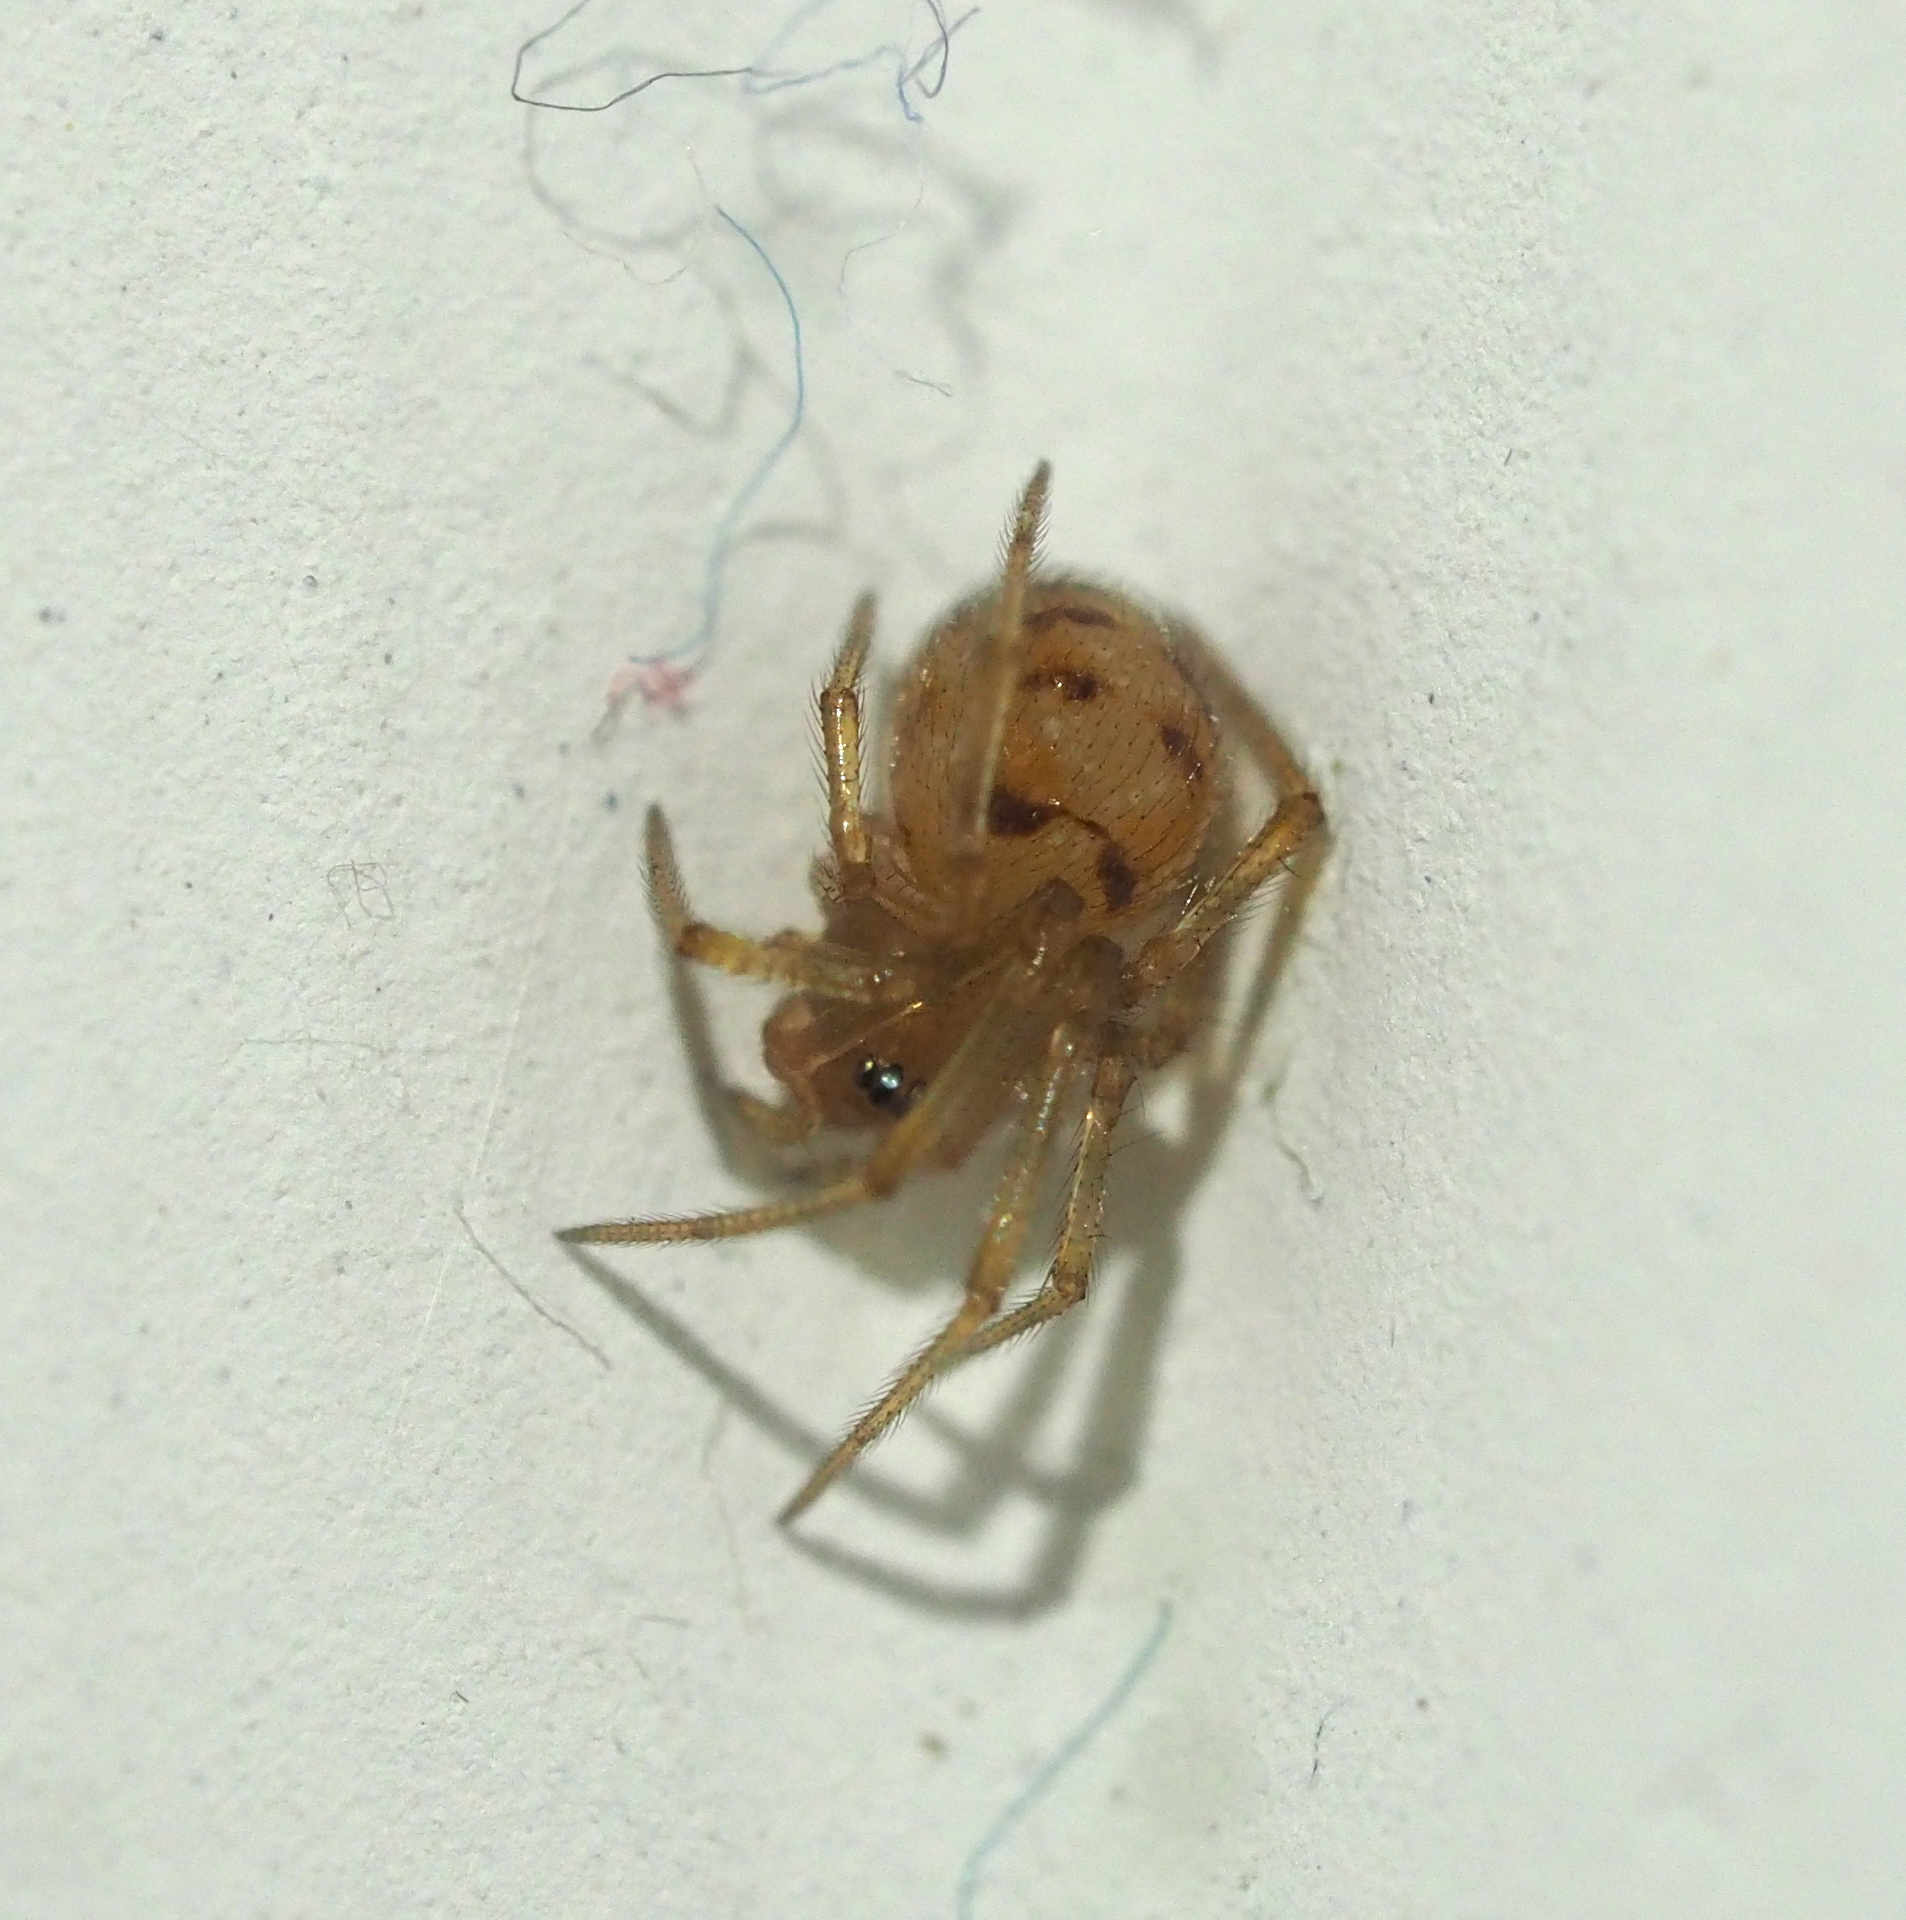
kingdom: Animalia
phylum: Arthropoda
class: Arachnida
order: Araneae
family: Theridiidae
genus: Steatoda
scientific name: Steatoda triangulosa
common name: Triangulate bud spider
